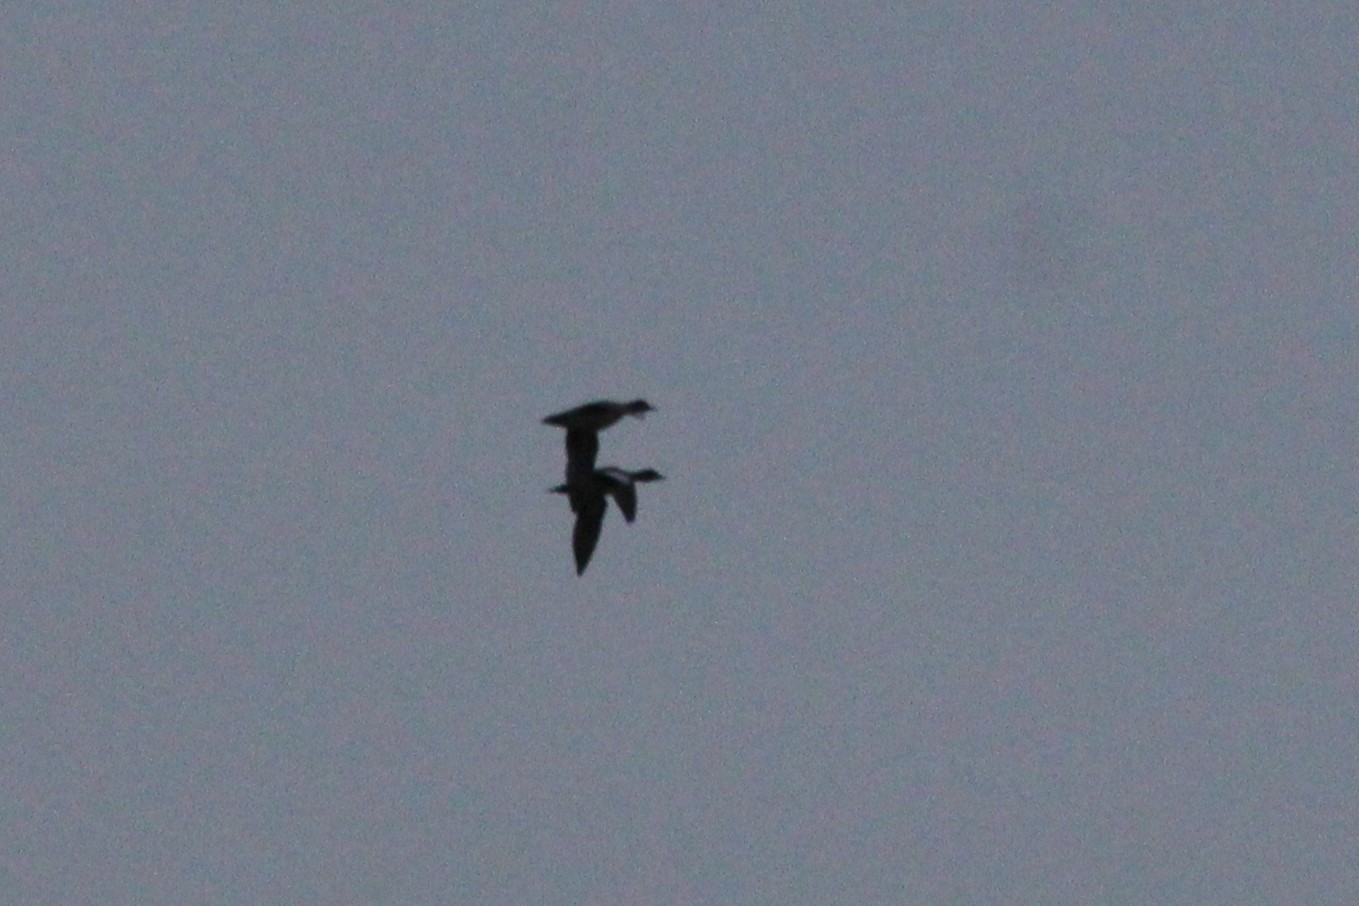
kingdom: Animalia
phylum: Chordata
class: Aves
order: Anseriformes
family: Anatidae
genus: Mareca
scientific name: Mareca americana
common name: American wigeon
